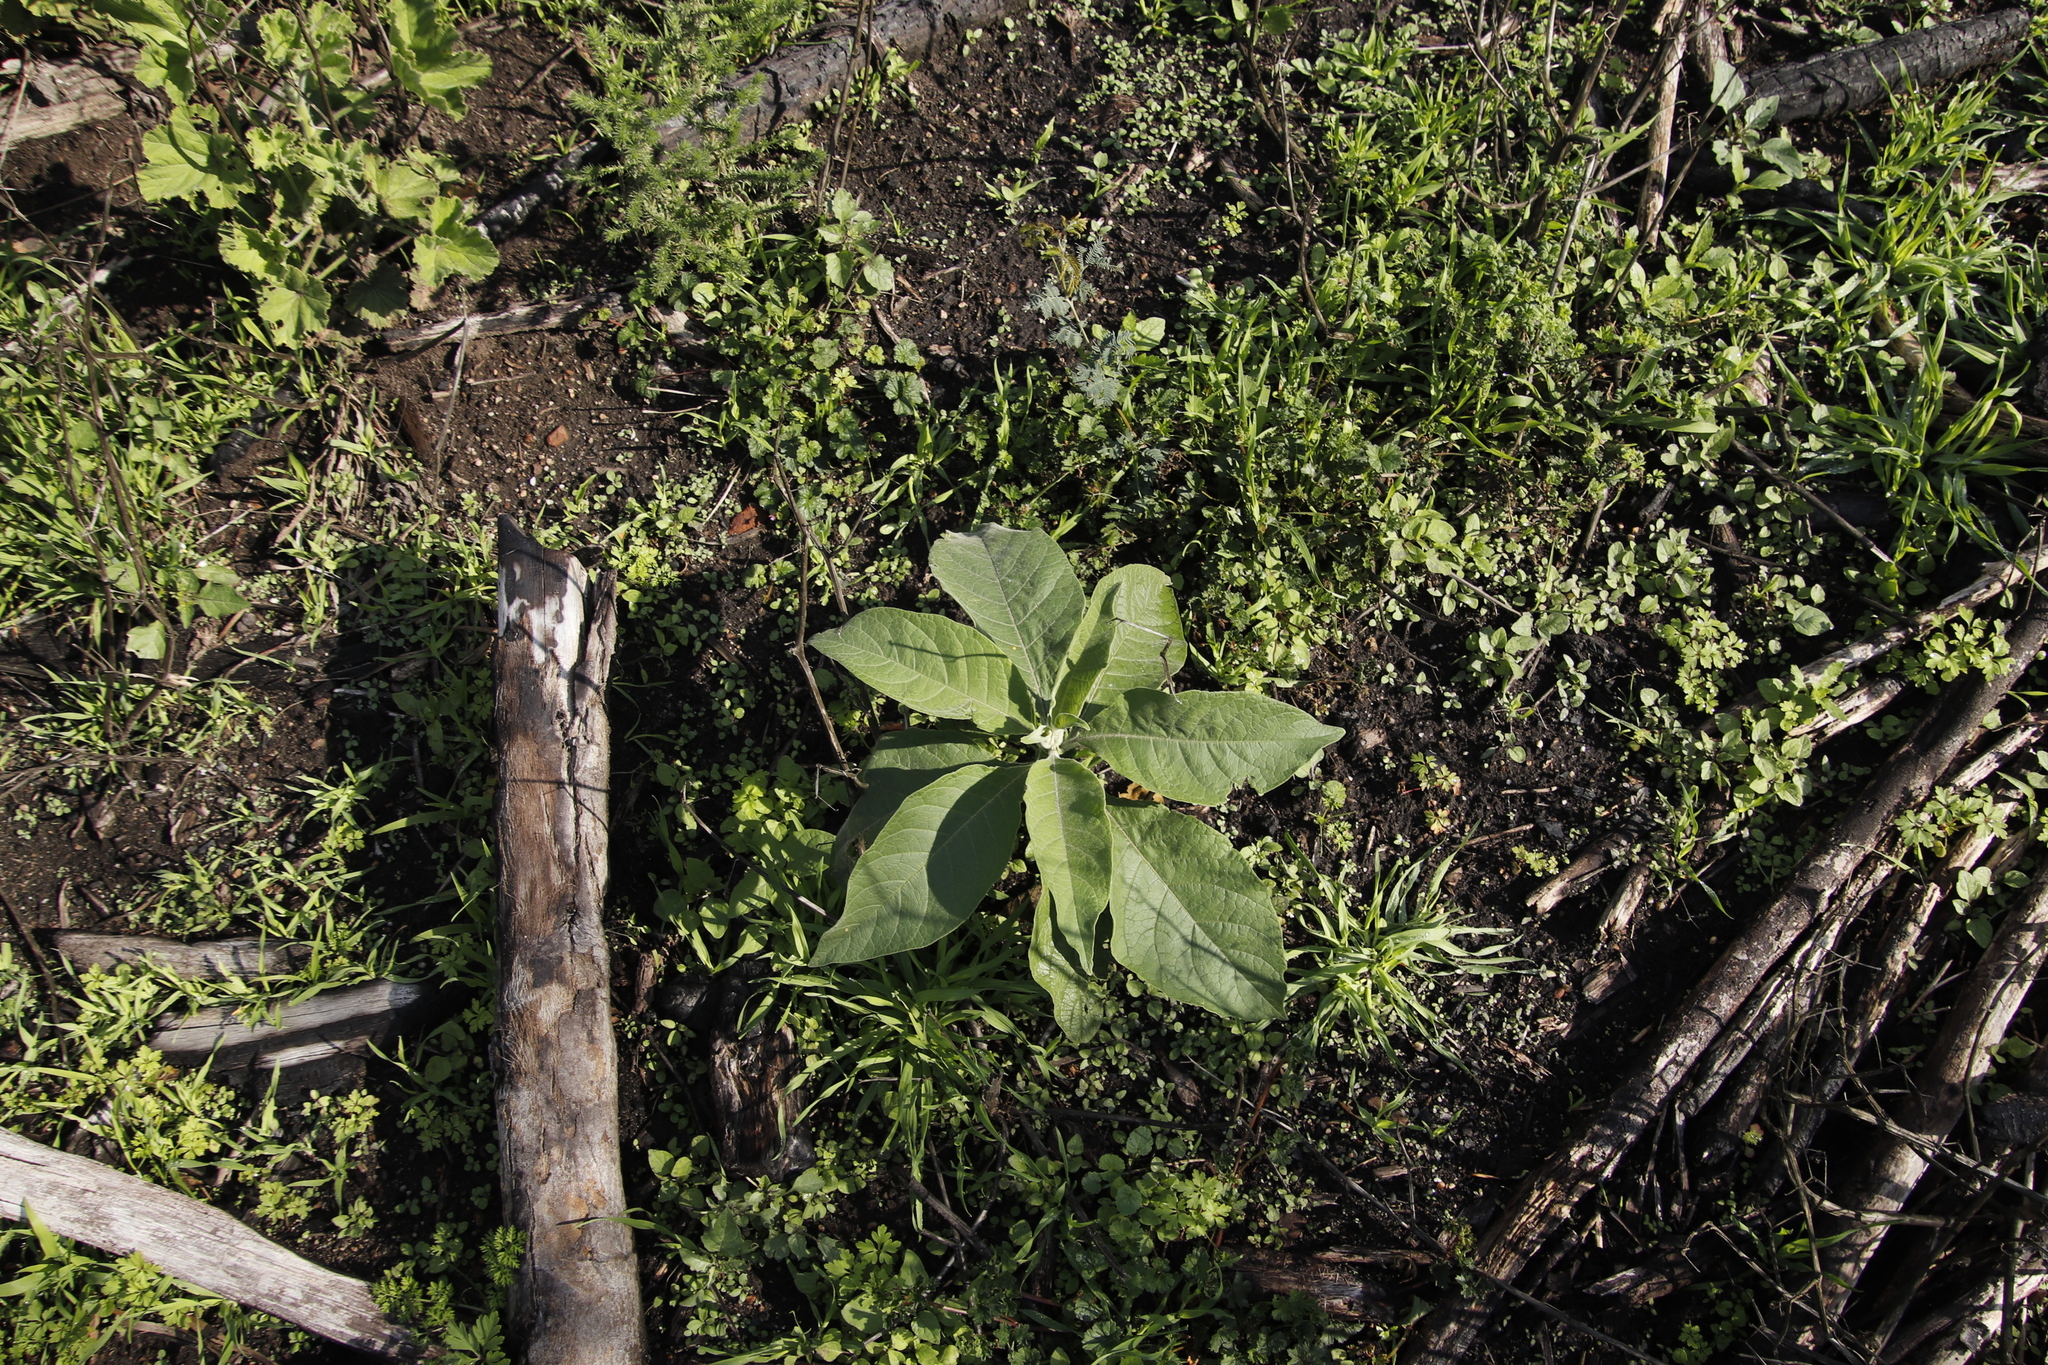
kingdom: Plantae
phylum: Tracheophyta
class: Magnoliopsida
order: Solanales
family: Solanaceae
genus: Solanum
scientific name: Solanum mauritianum
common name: Earleaf nightshade
